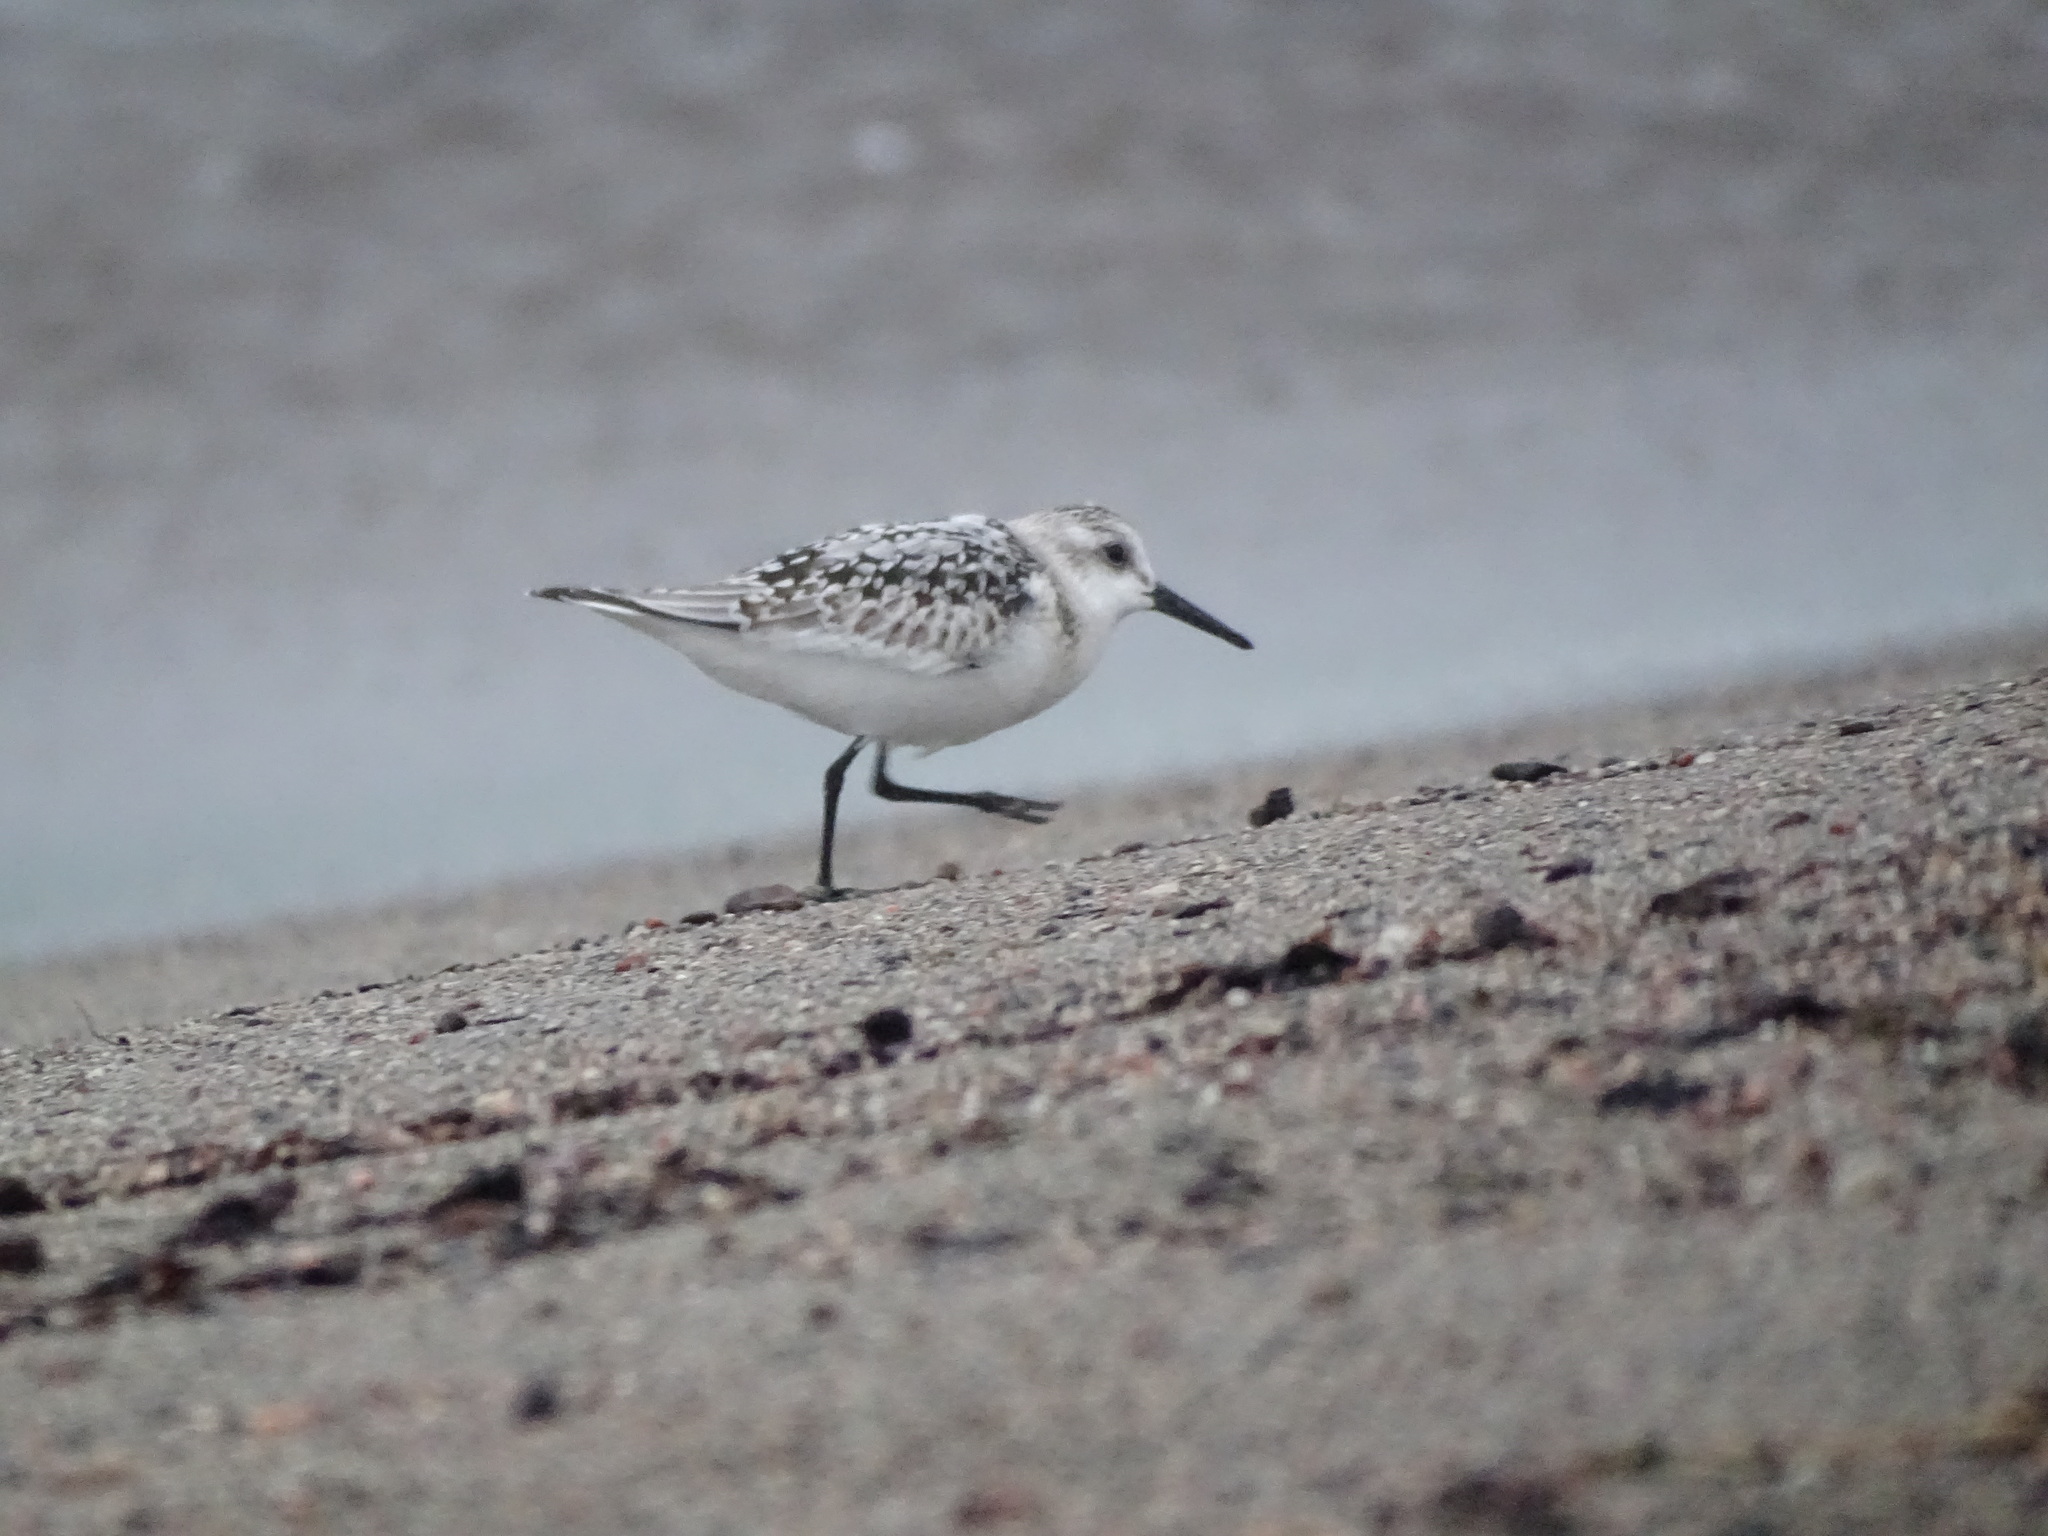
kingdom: Animalia
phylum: Chordata
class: Aves
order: Charadriiformes
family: Scolopacidae
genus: Calidris
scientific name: Calidris alba
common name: Sanderling
